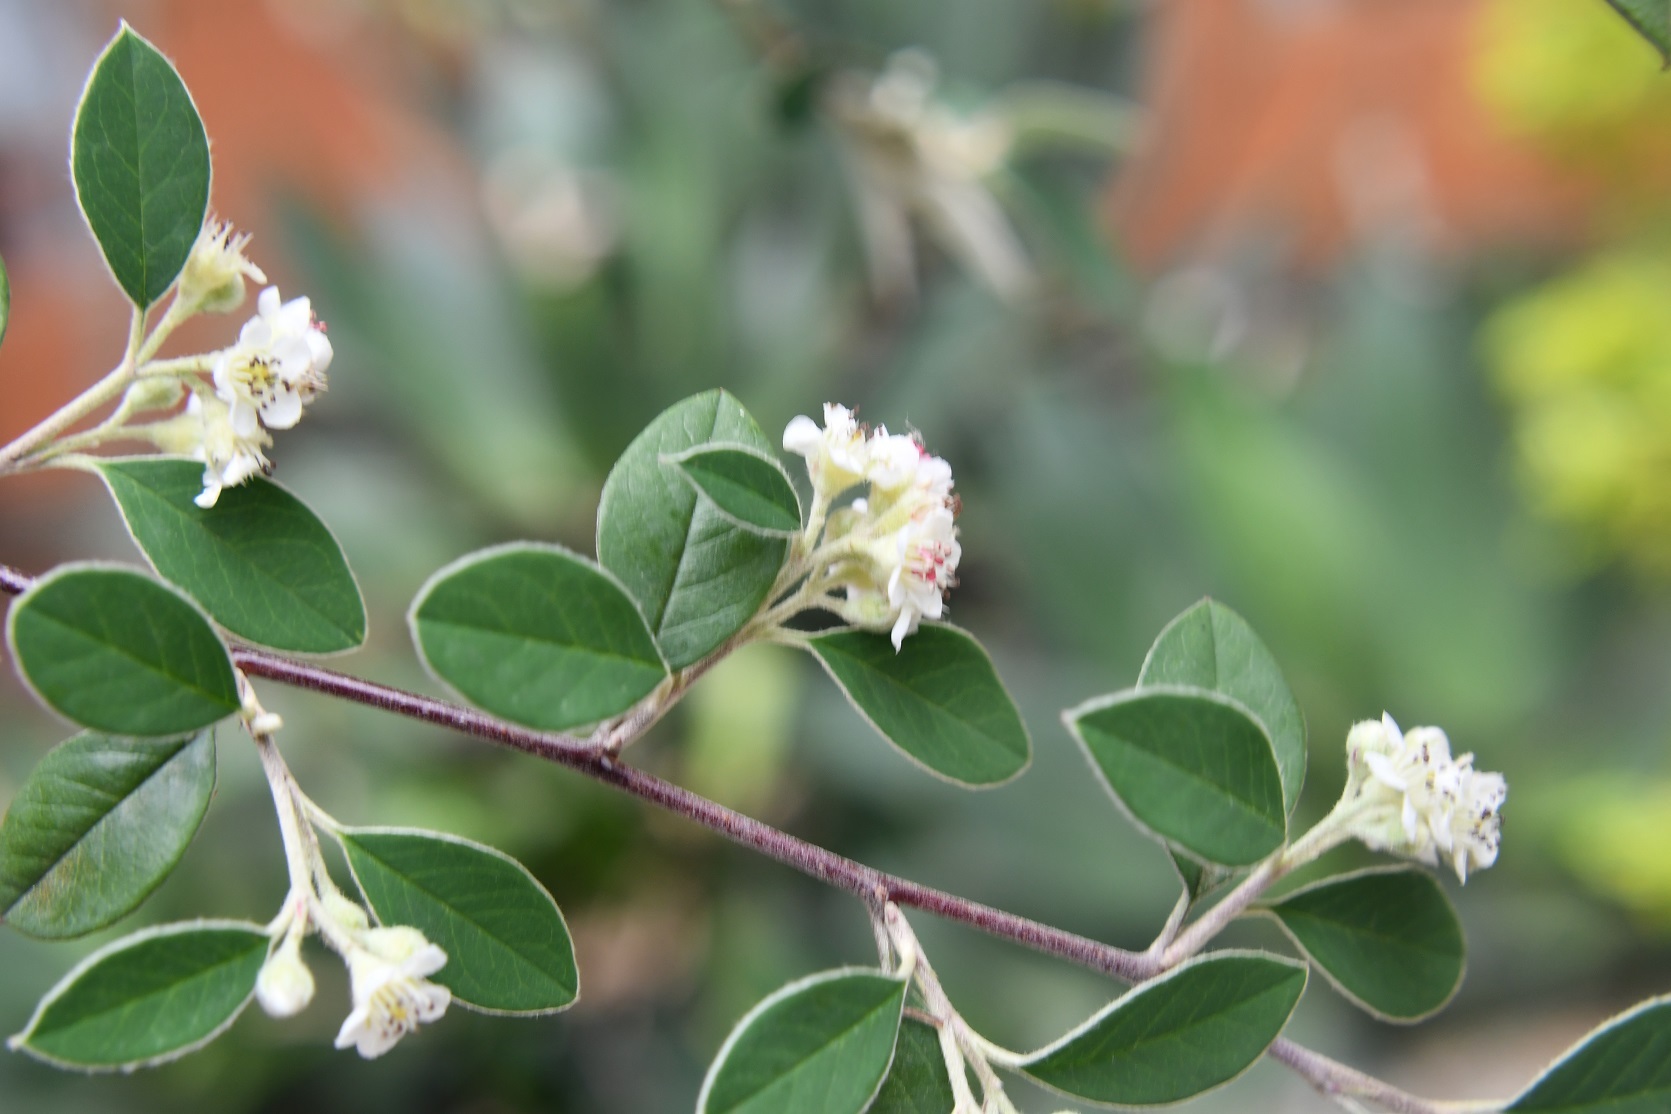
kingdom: Plantae
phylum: Tracheophyta
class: Magnoliopsida
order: Rosales
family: Rosaceae
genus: Malacomeles
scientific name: Malacomeles nervosa
